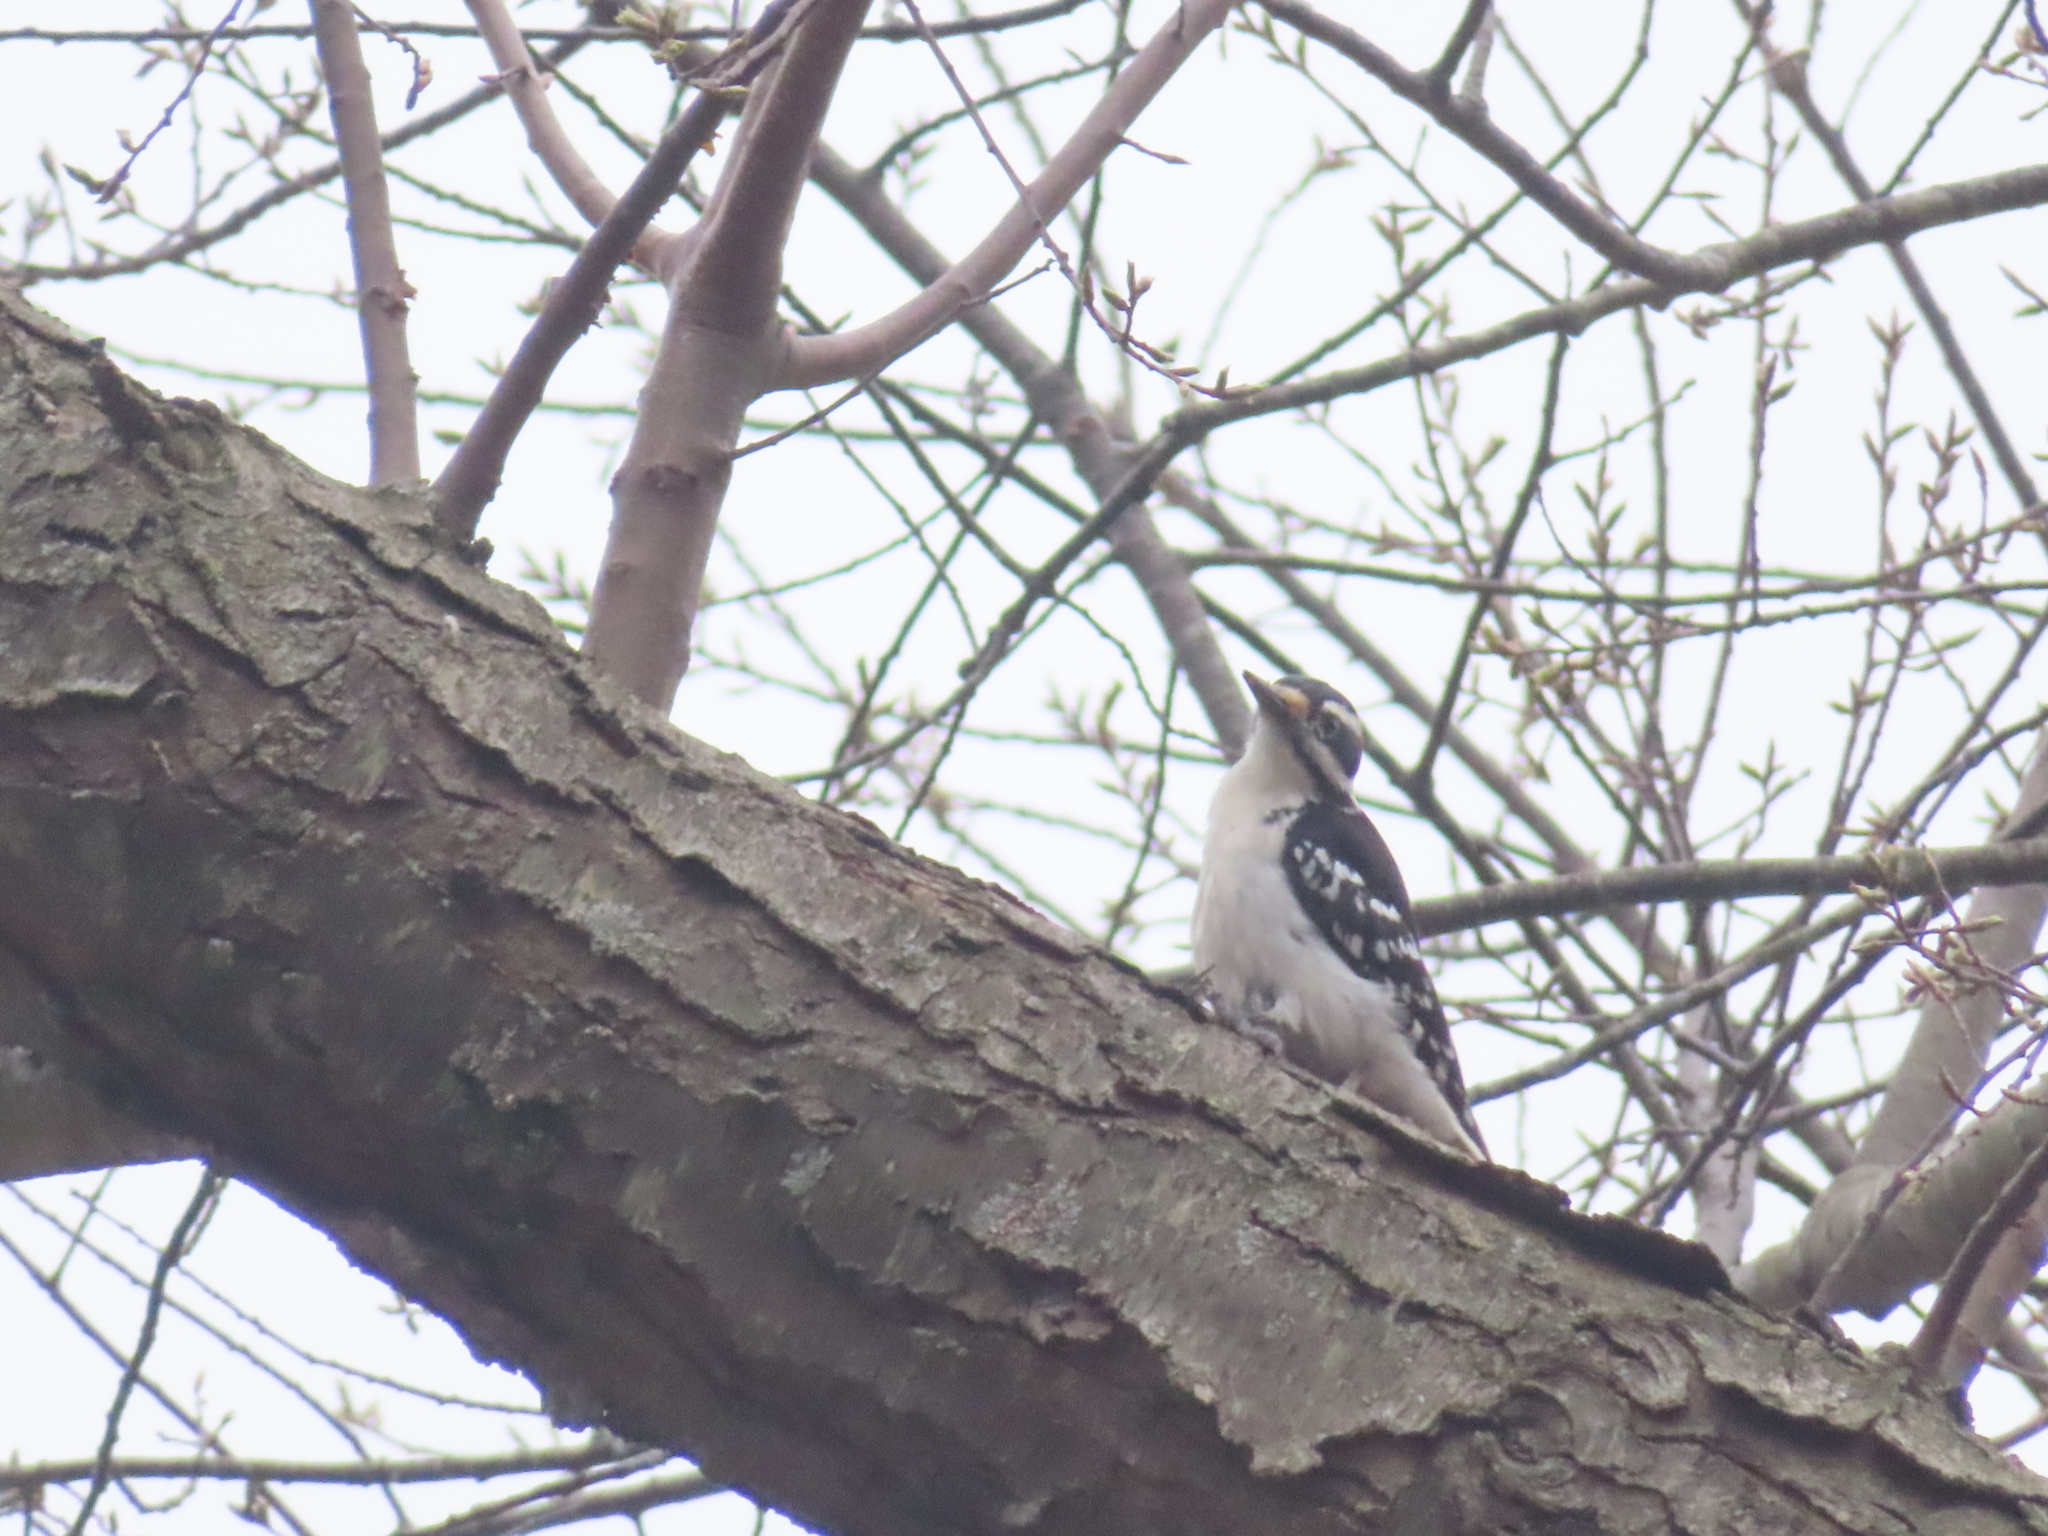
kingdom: Animalia
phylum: Chordata
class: Aves
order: Piciformes
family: Picidae
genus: Leuconotopicus
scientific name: Leuconotopicus villosus
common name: Hairy woodpecker
